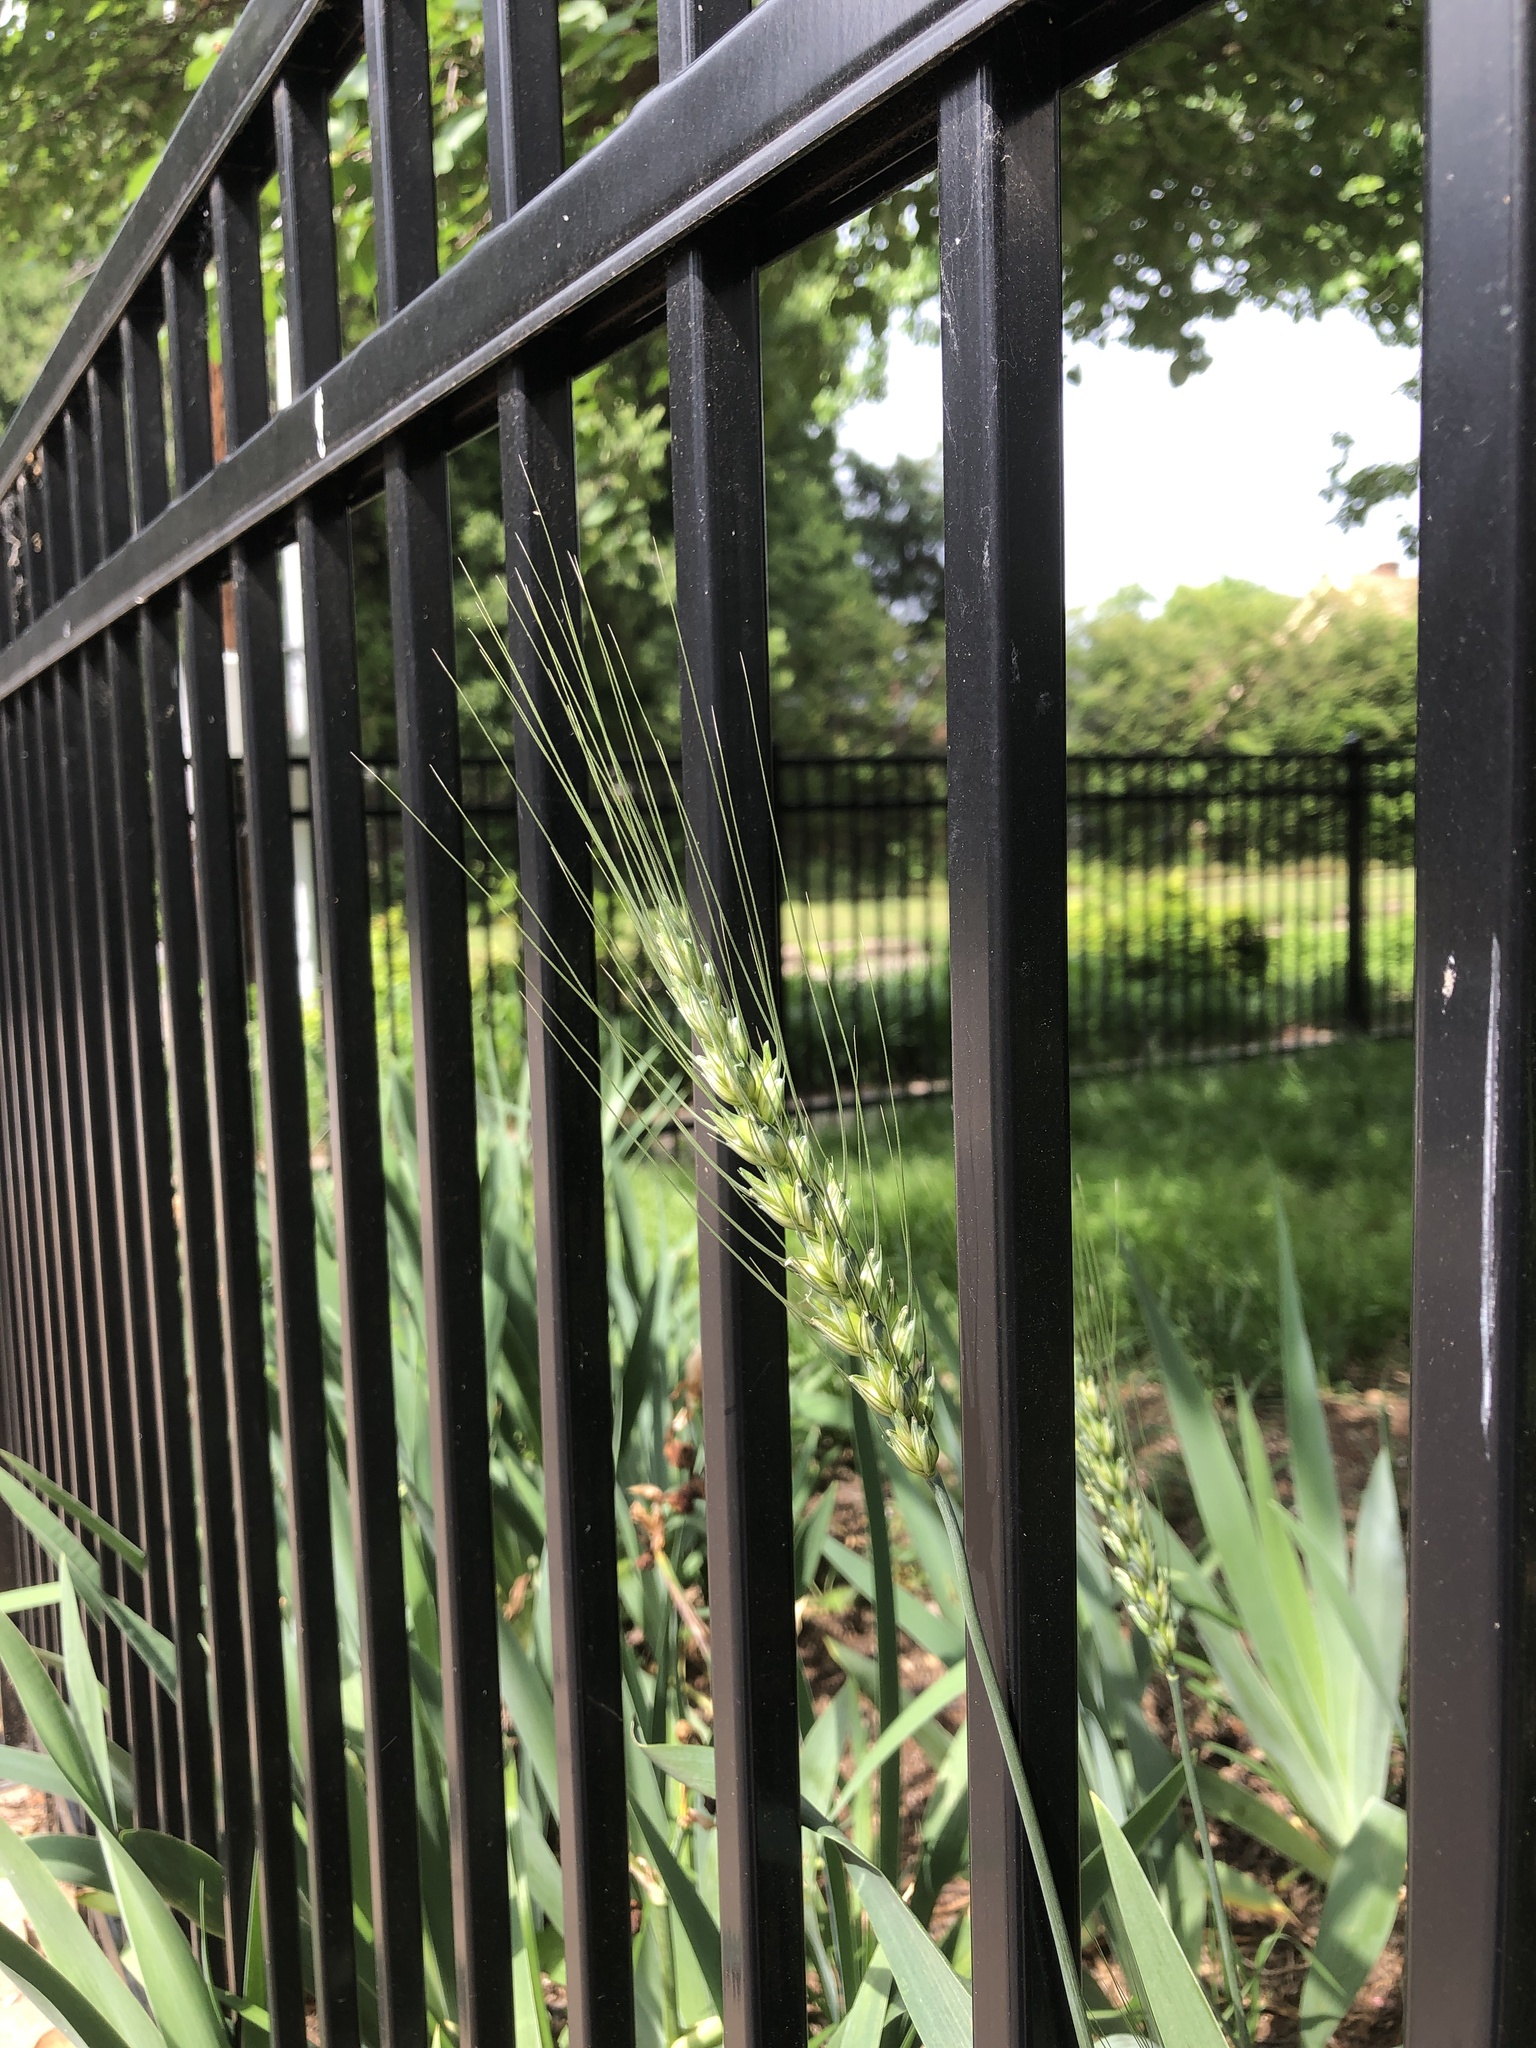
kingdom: Plantae
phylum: Tracheophyta
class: Liliopsida
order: Poales
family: Poaceae
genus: Triticum
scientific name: Triticum aestivum
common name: Common wheat
